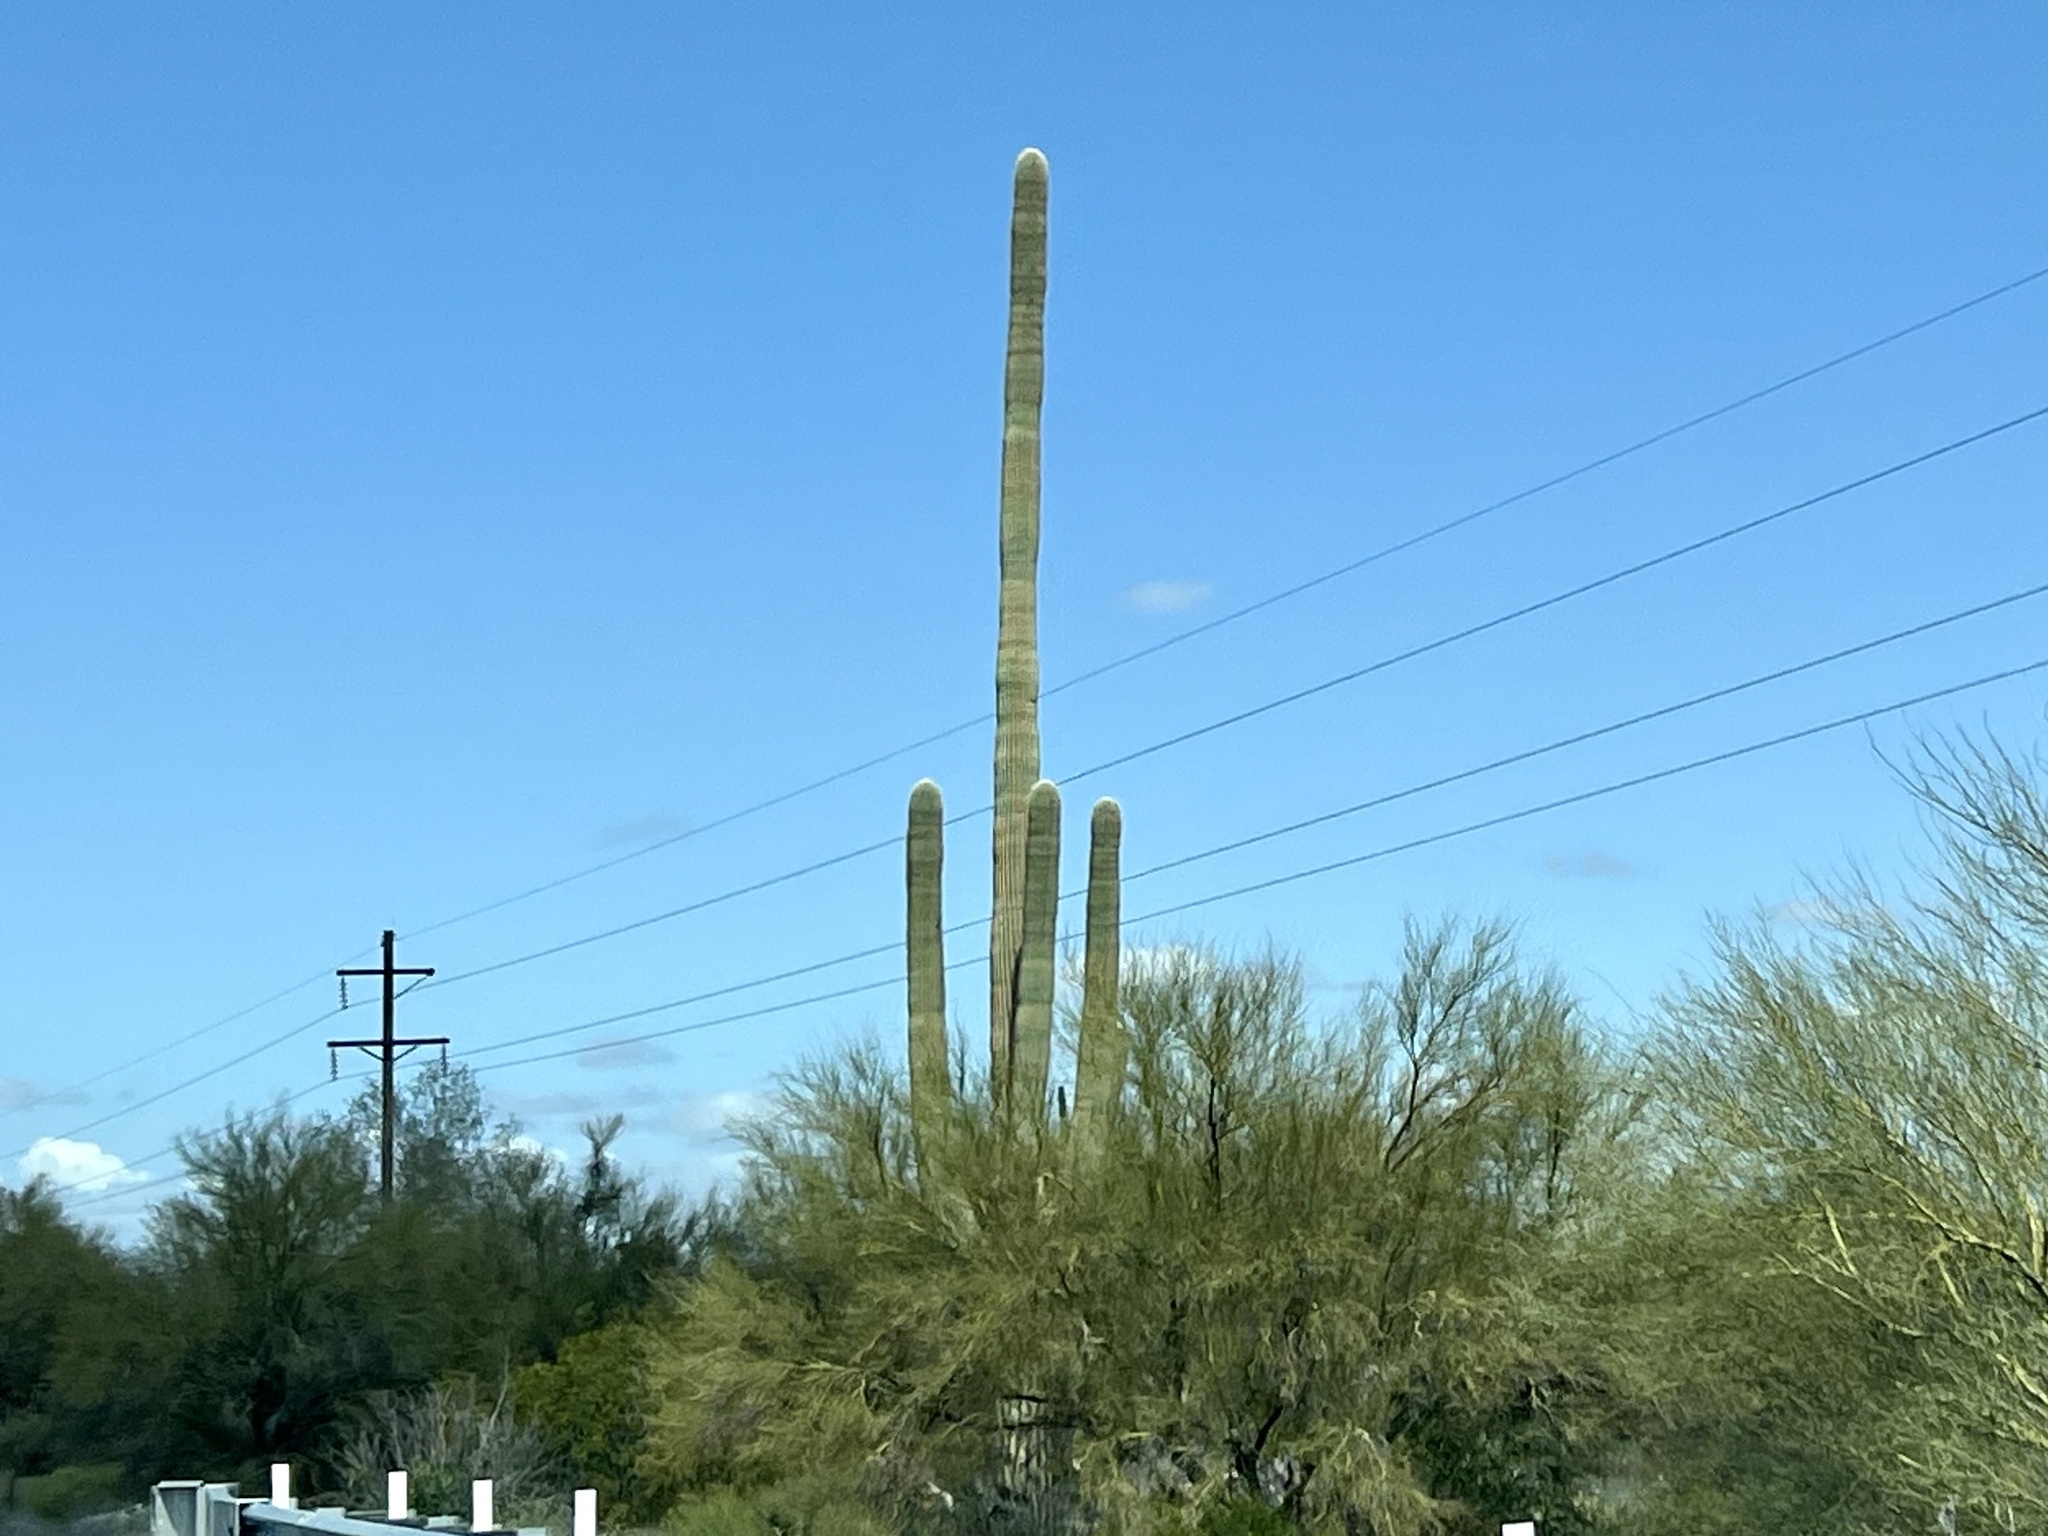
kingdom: Plantae
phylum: Tracheophyta
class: Magnoliopsida
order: Caryophyllales
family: Cactaceae
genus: Carnegiea
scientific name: Carnegiea gigantea
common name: Saguaro
